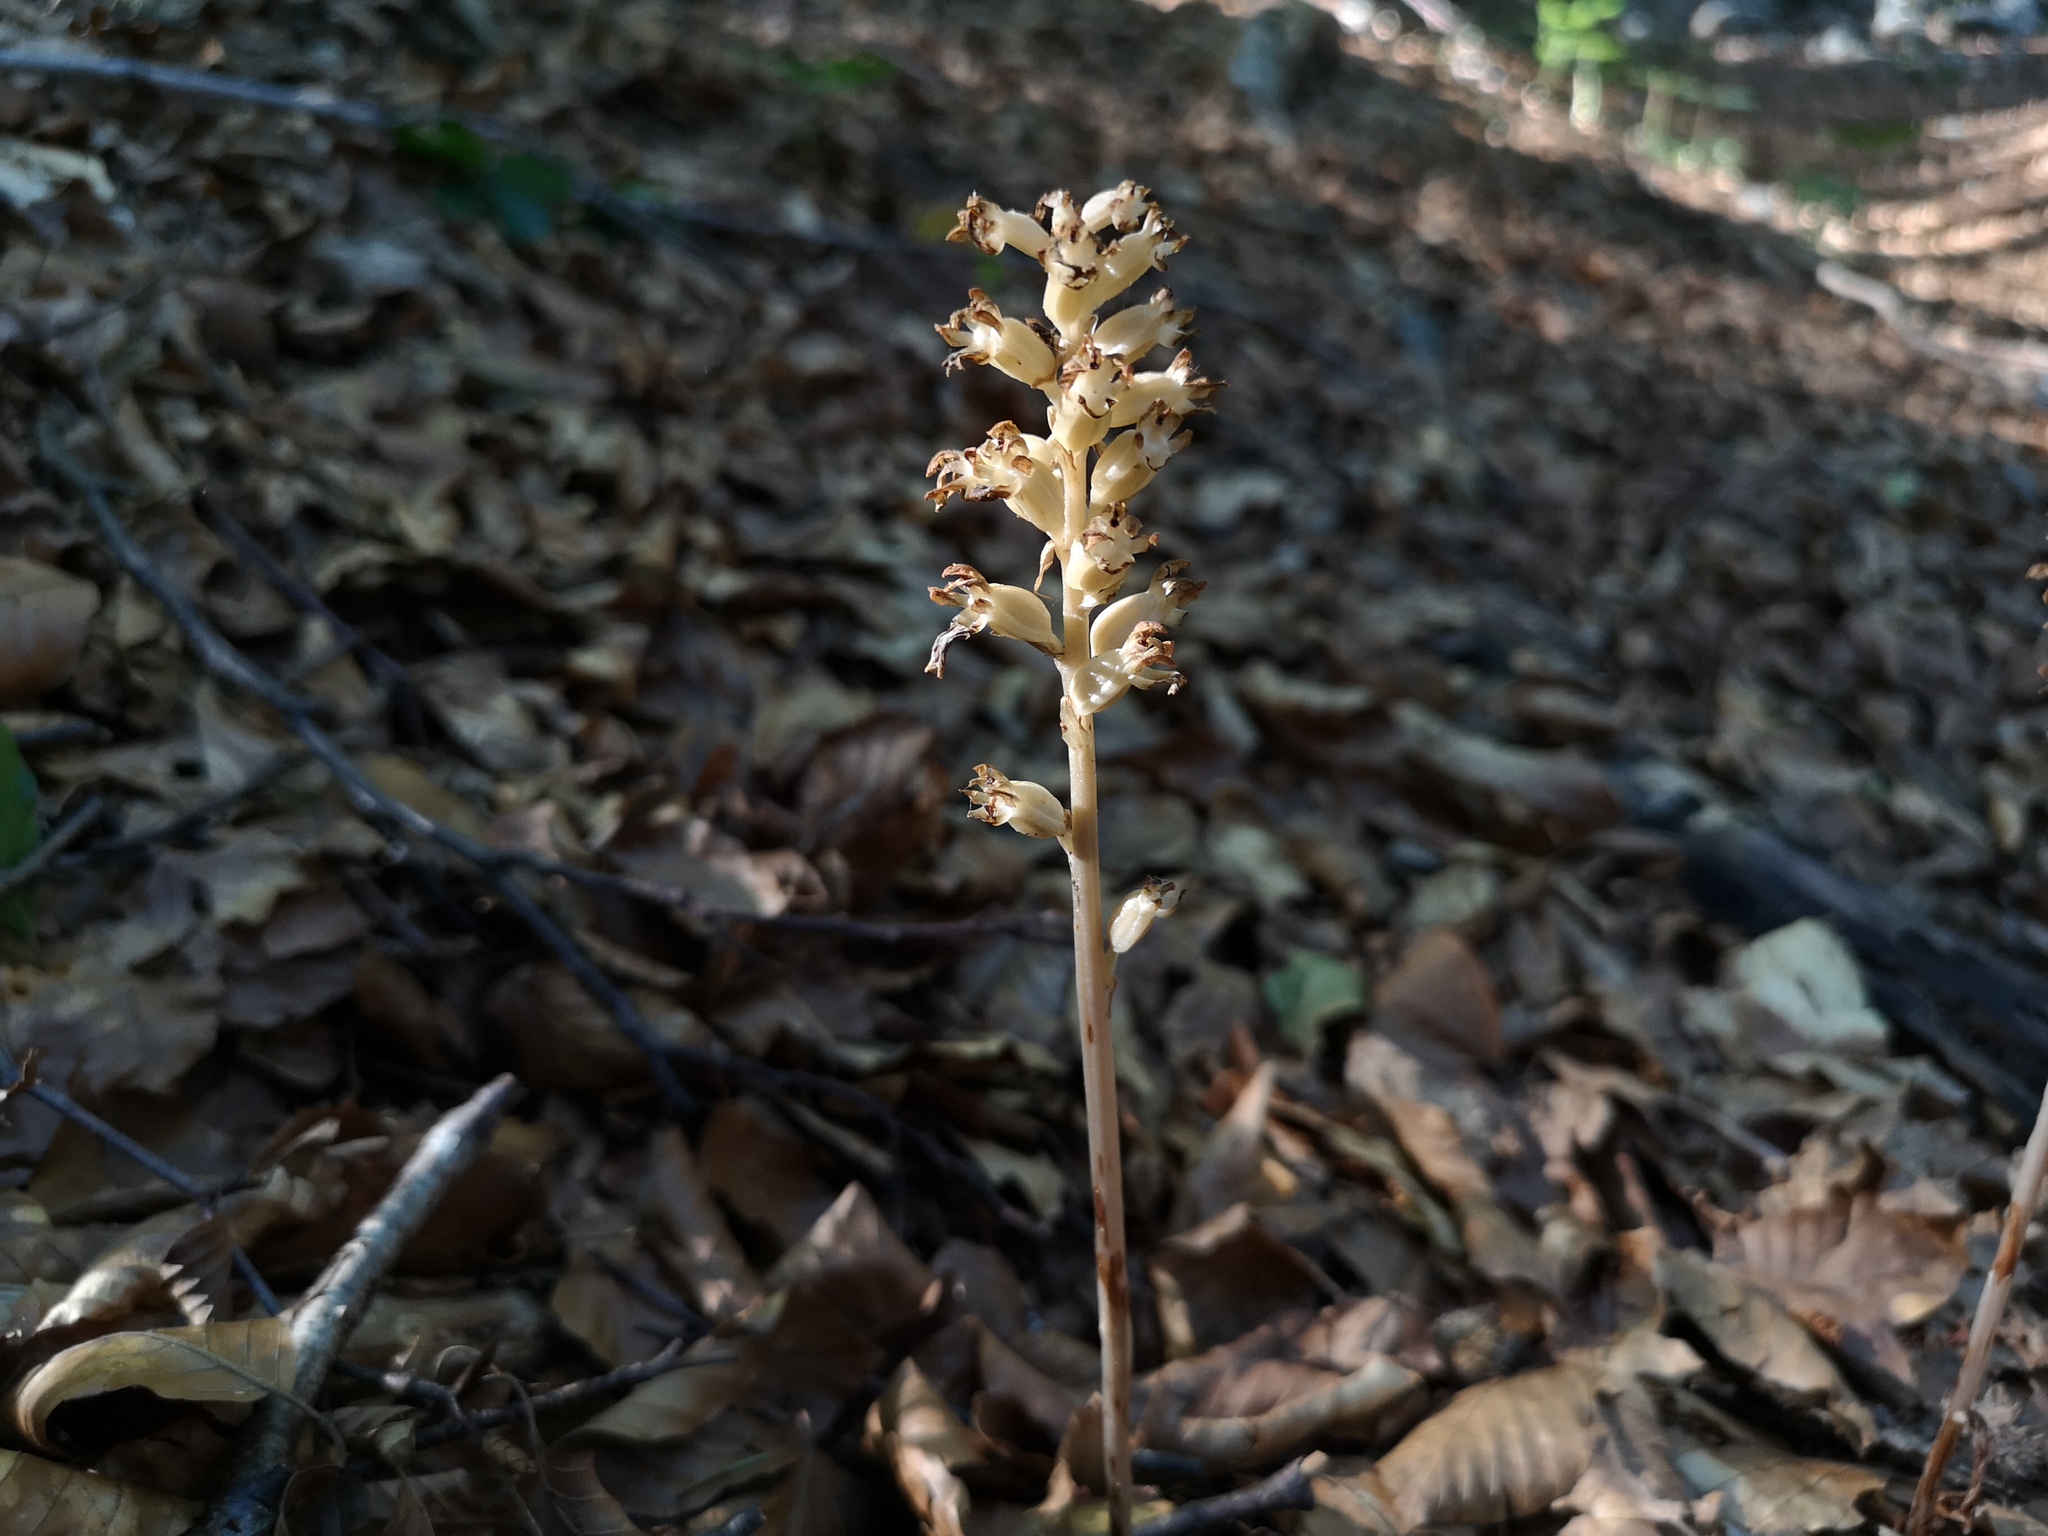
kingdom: Plantae
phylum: Tracheophyta
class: Liliopsida
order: Asparagales
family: Orchidaceae
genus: Neottia
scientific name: Neottia nidus-avis
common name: Bird's-nest orchid
